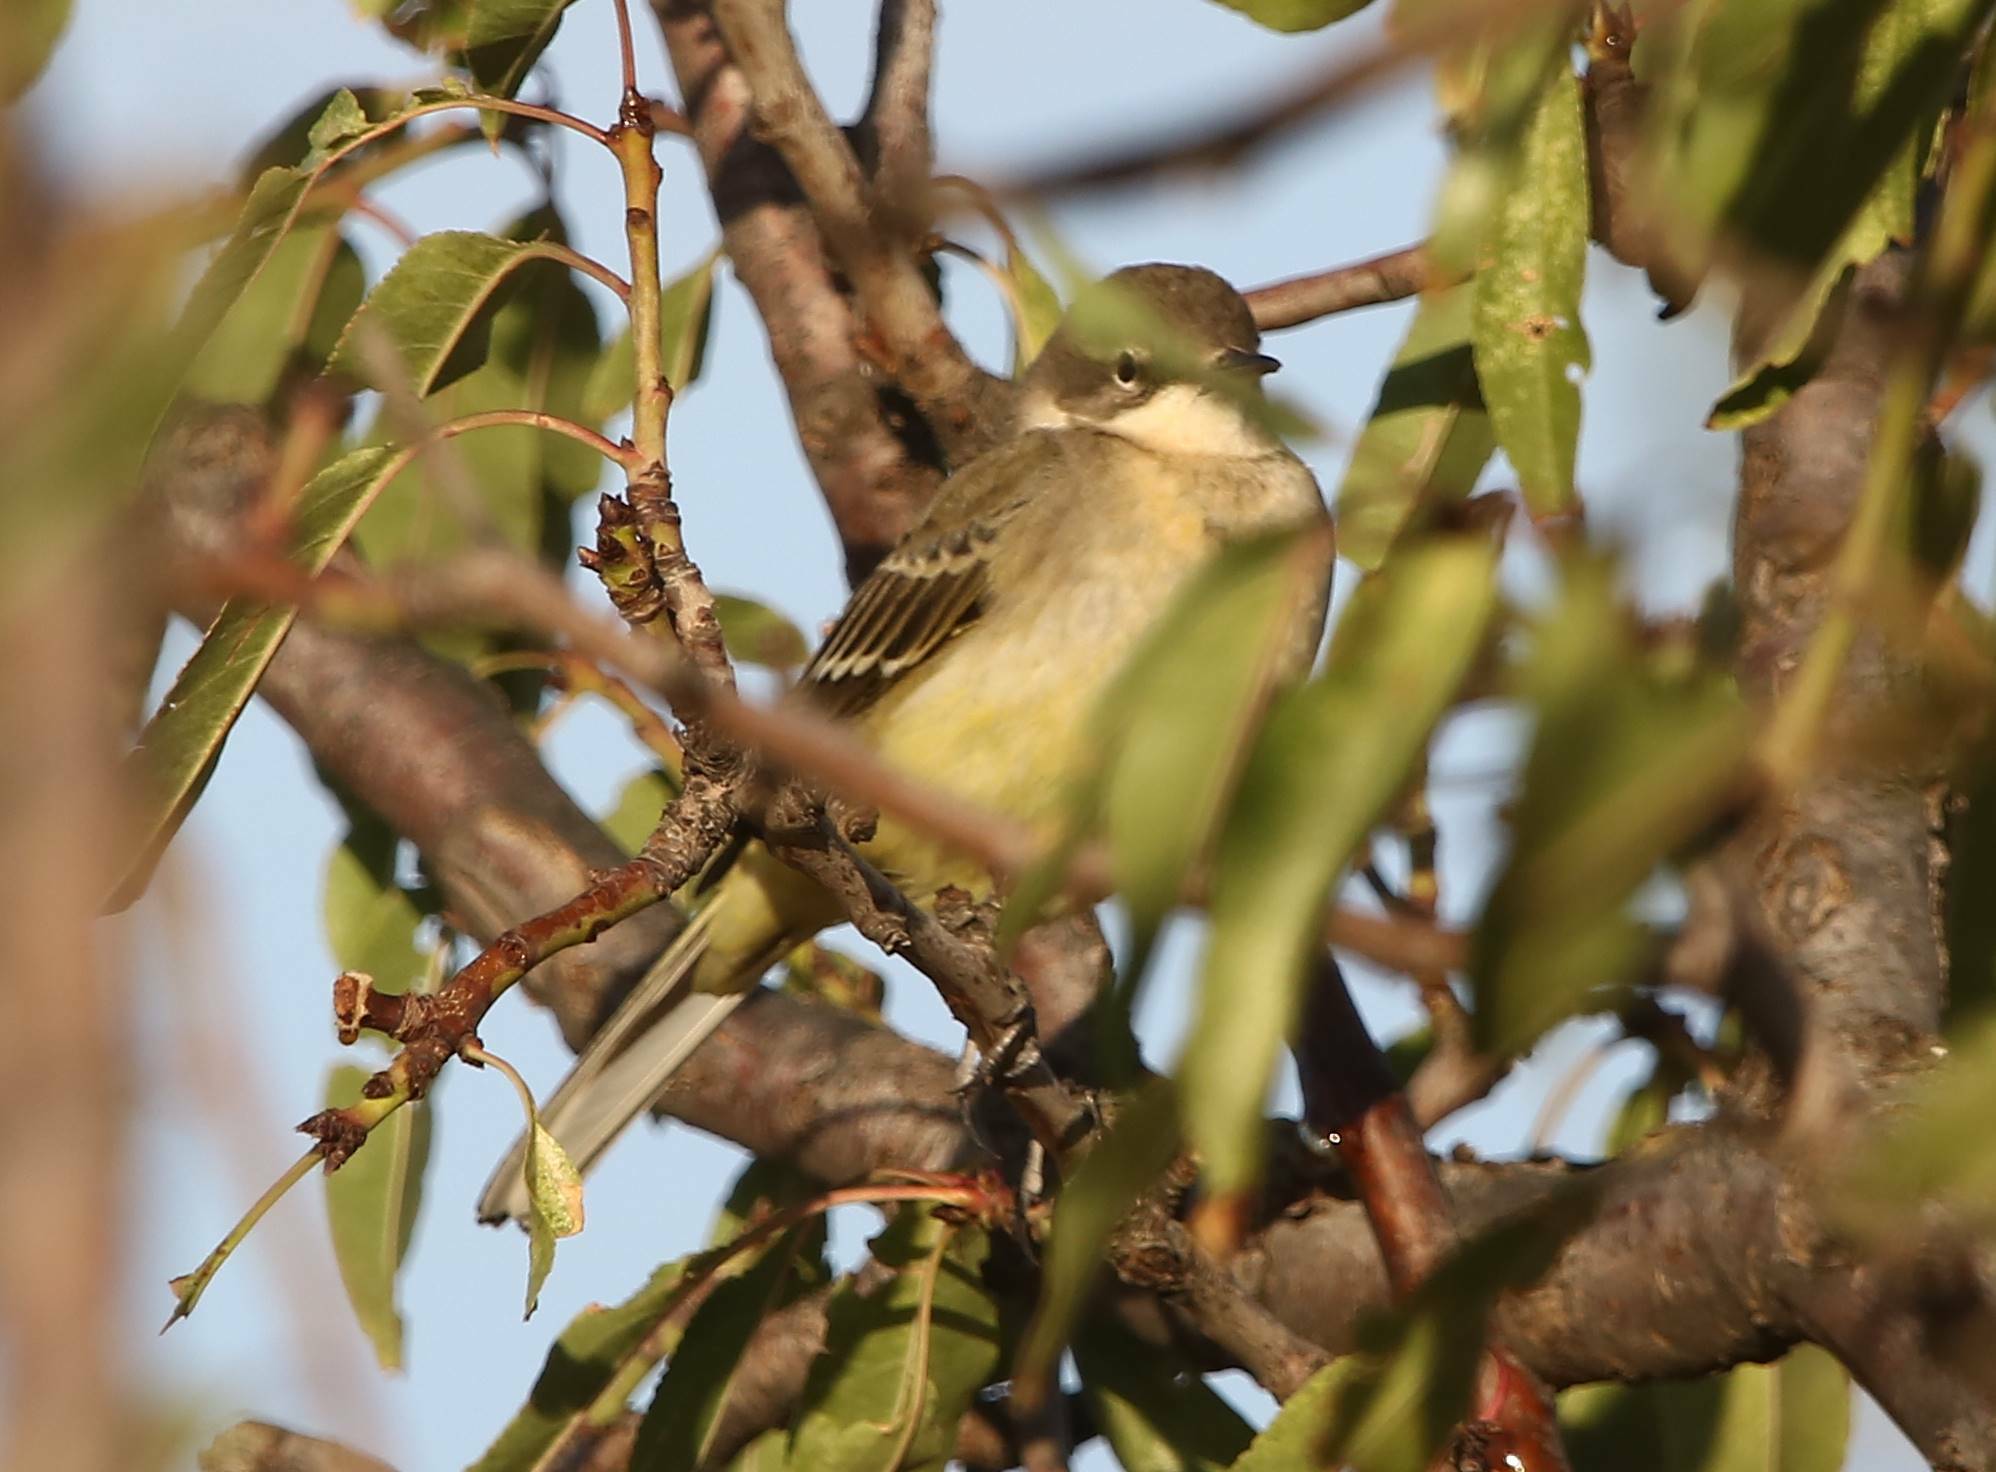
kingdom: Animalia
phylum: Chordata
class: Aves
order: Passeriformes
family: Motacillidae
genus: Motacilla
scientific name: Motacilla flava
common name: Western yellow wagtail
